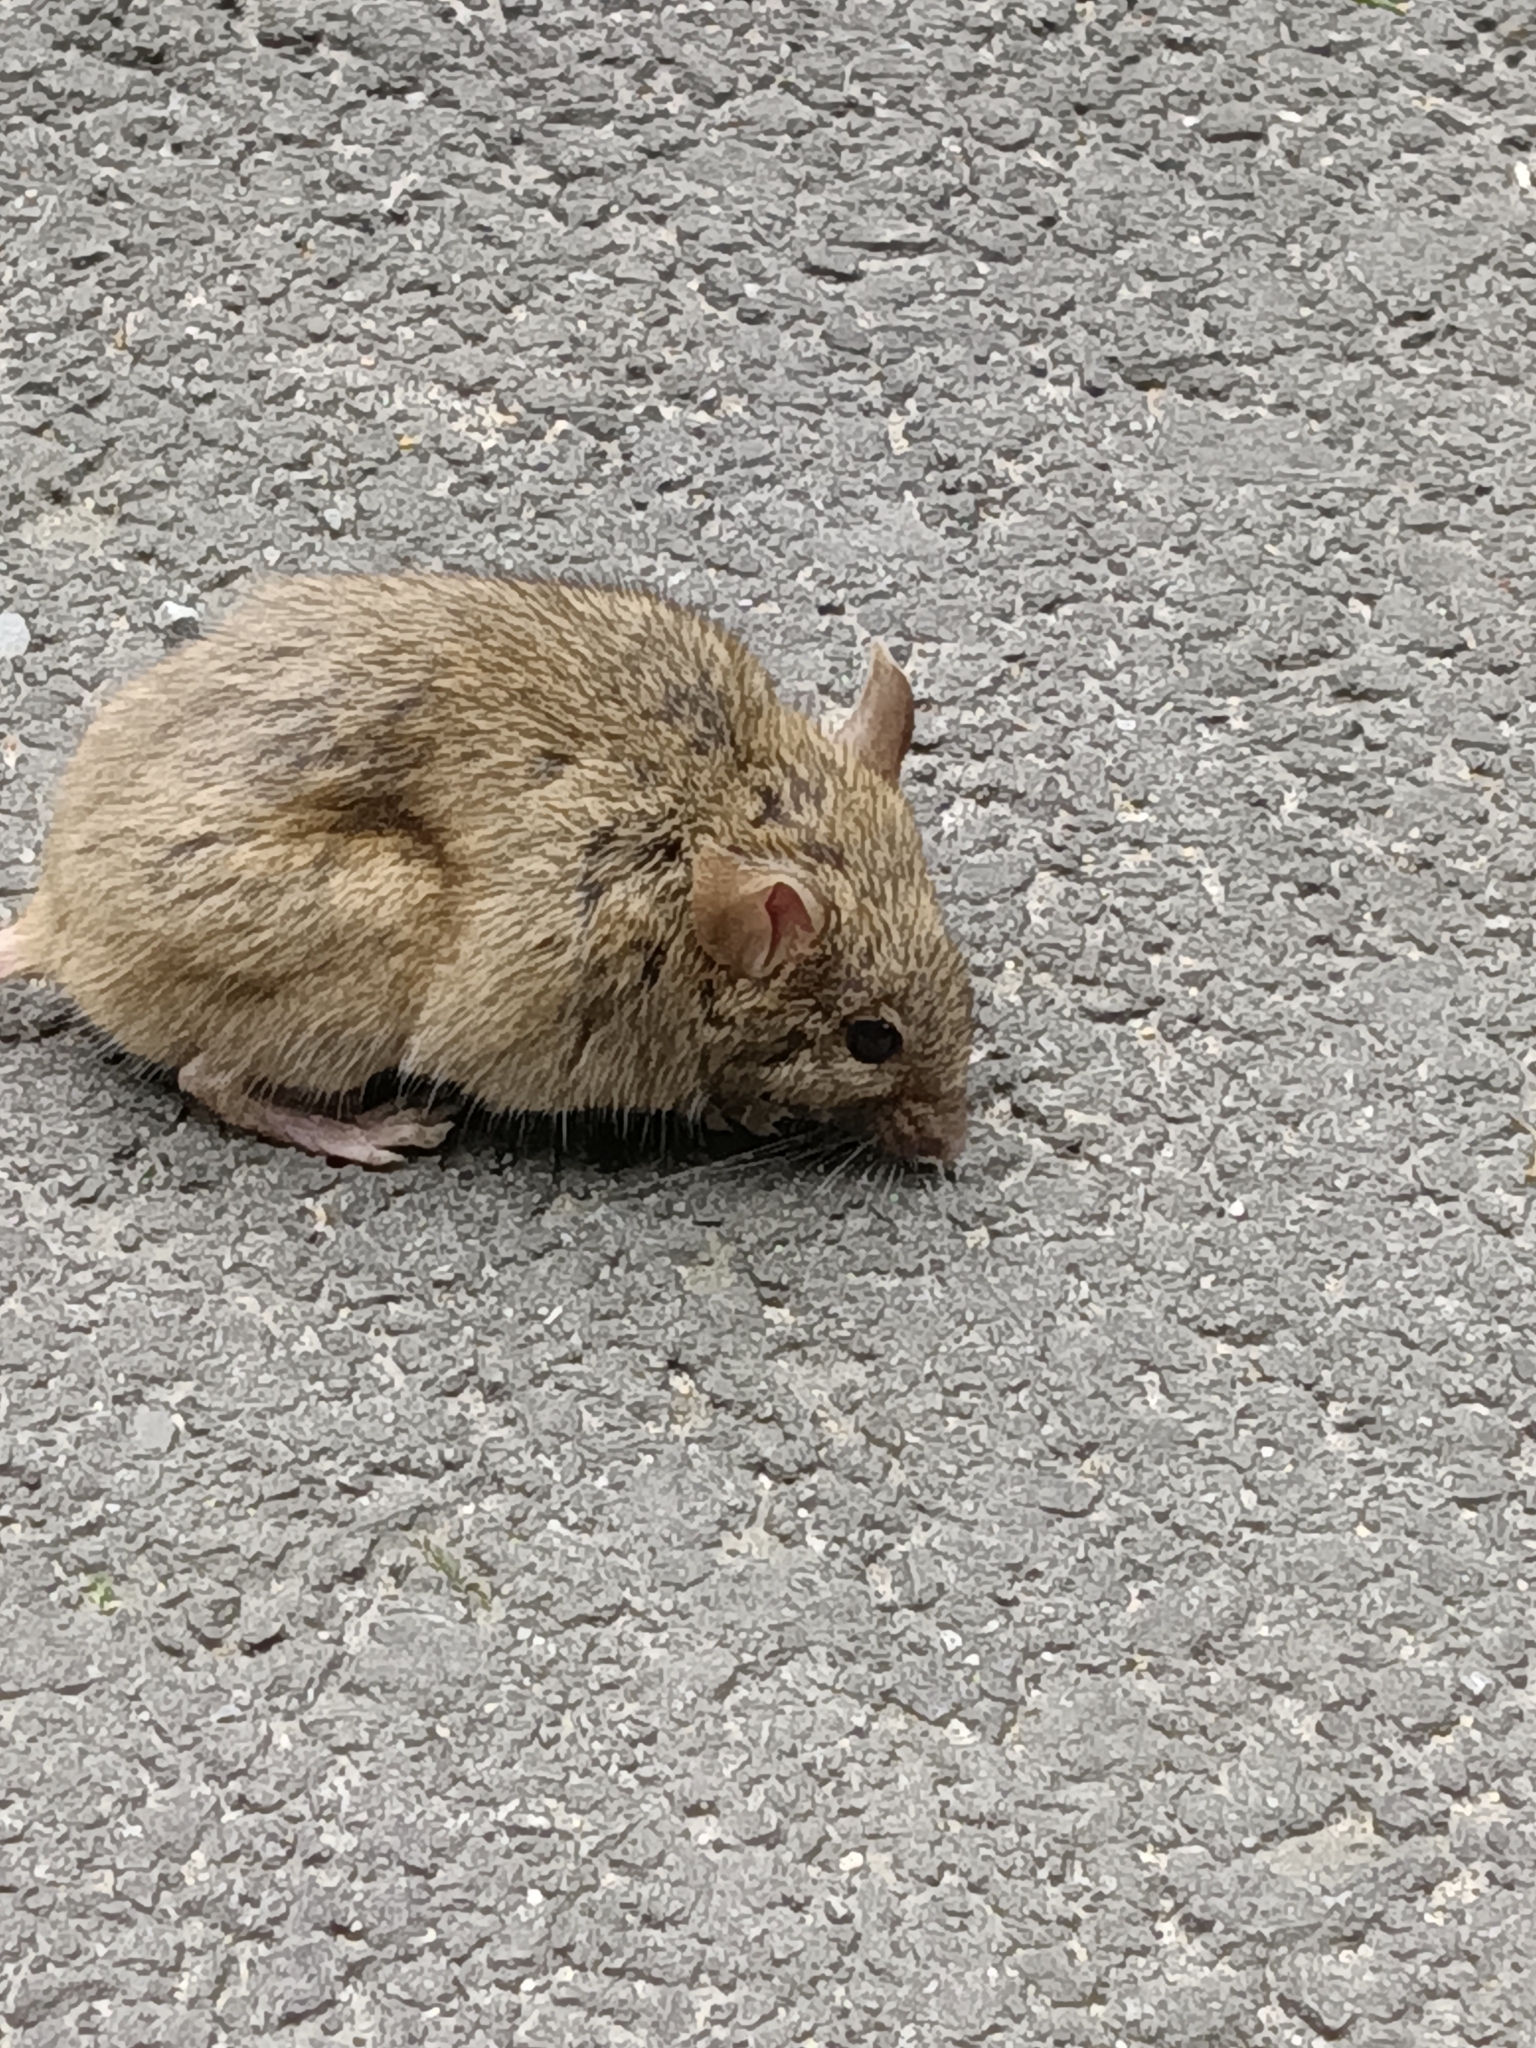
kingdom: Animalia
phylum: Chordata
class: Mammalia
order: Rodentia
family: Muridae
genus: Mus
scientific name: Mus musculus
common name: House mouse
